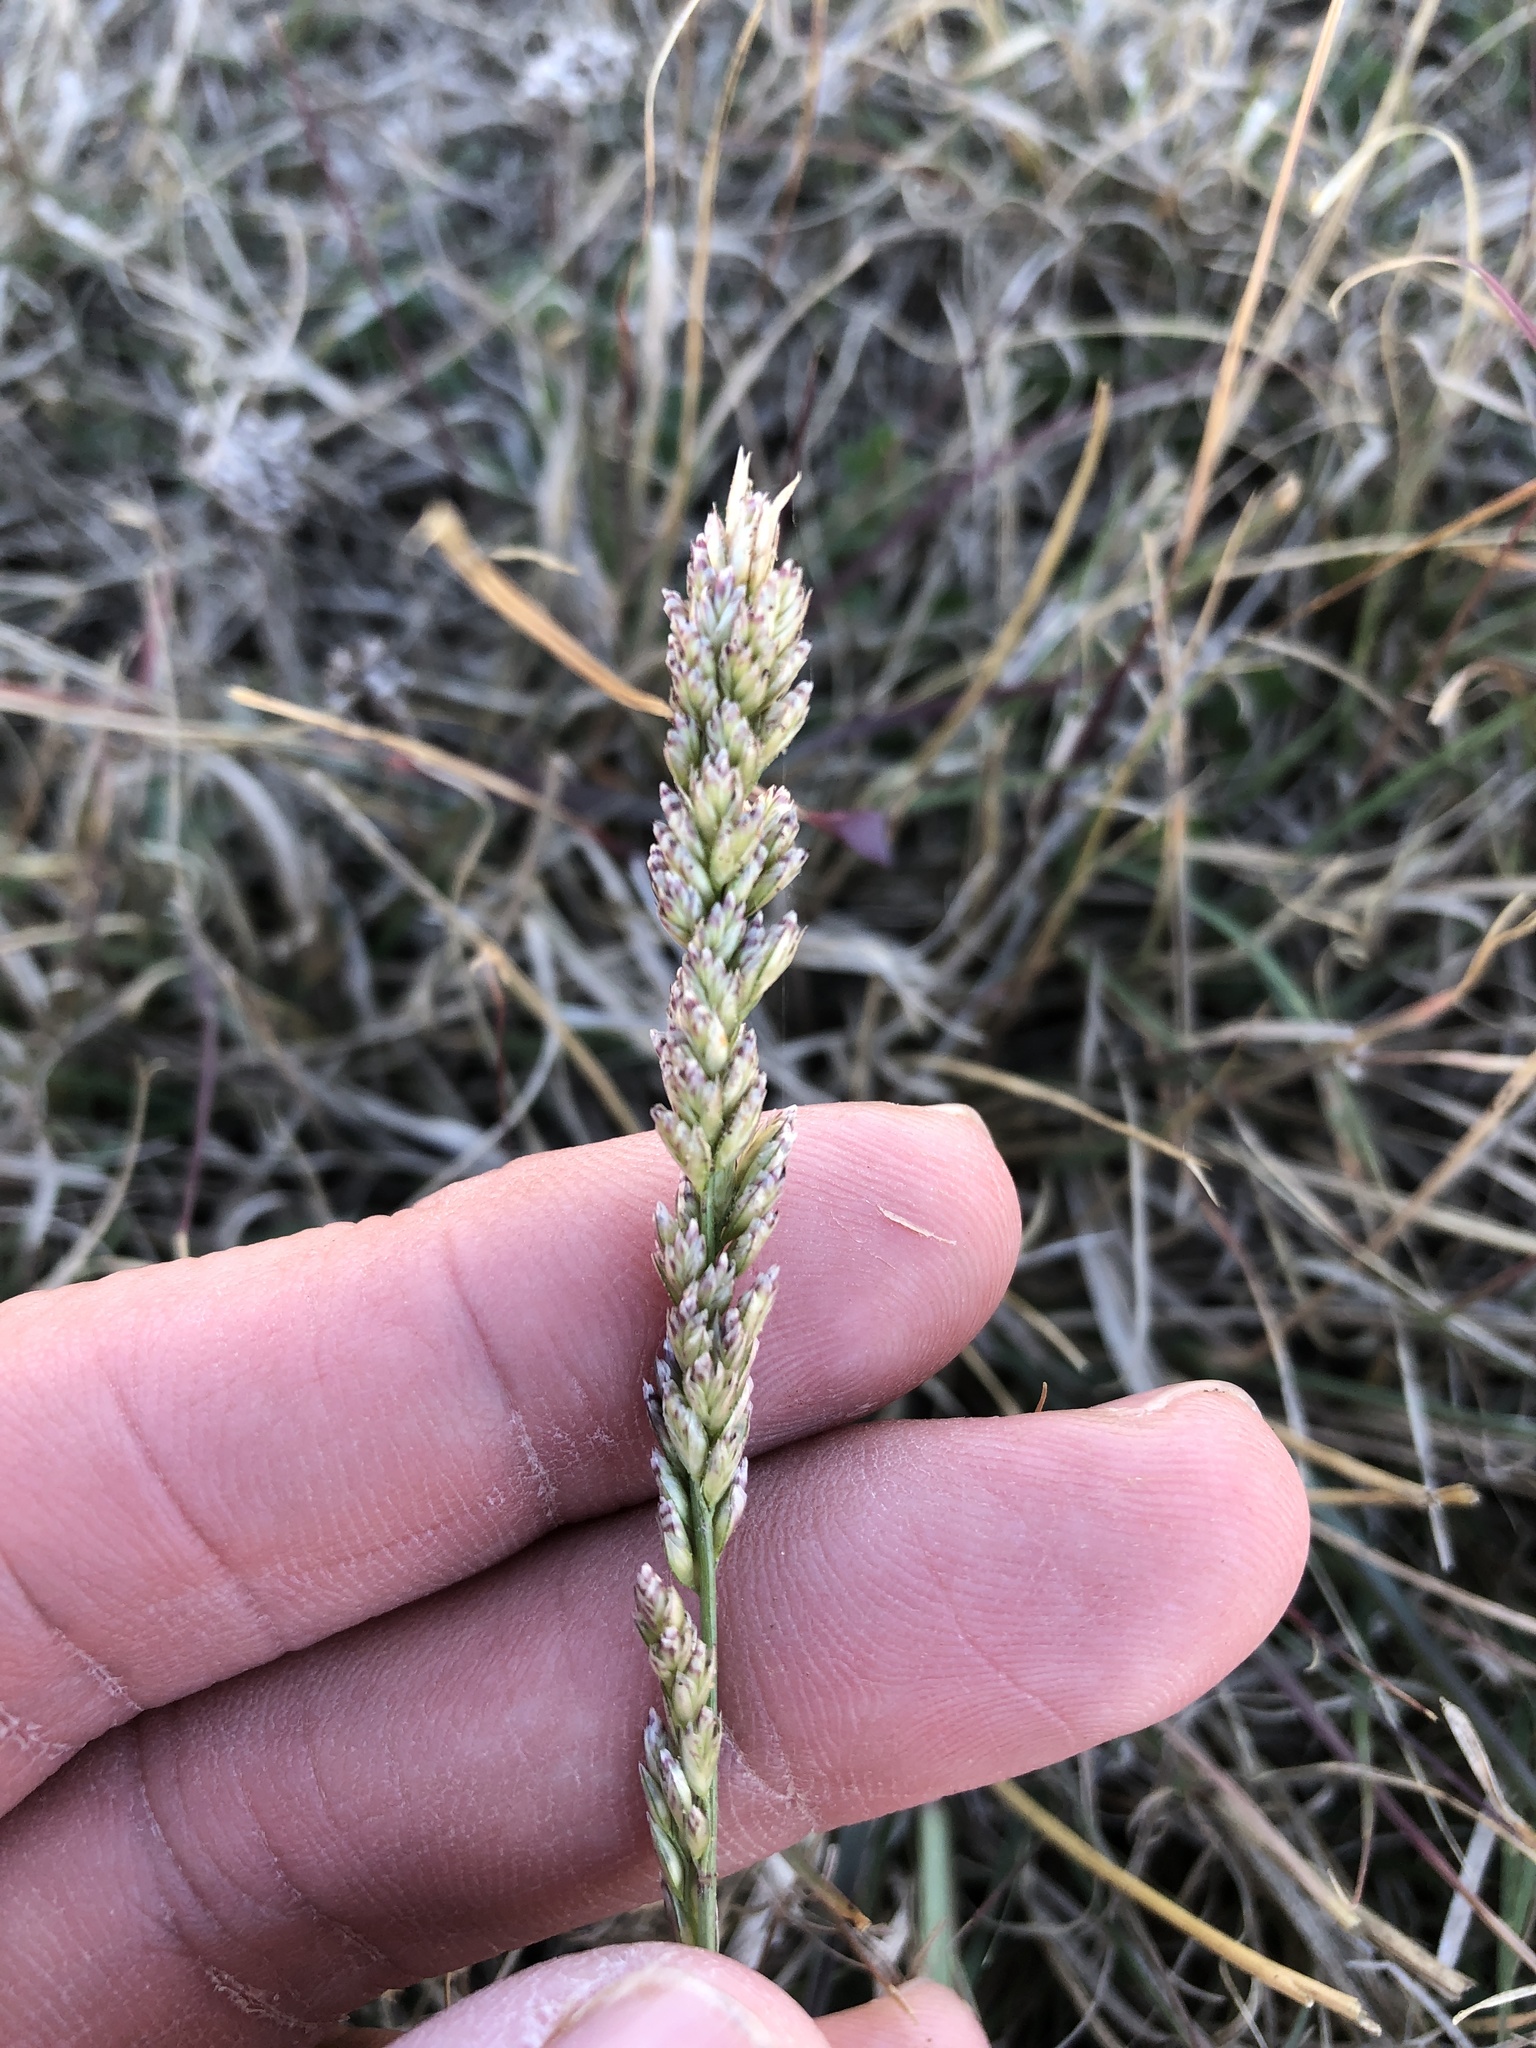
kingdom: Plantae
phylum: Tracheophyta
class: Liliopsida
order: Poales
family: Poaceae
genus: Tridens
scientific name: Tridens albescens
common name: White tridens
